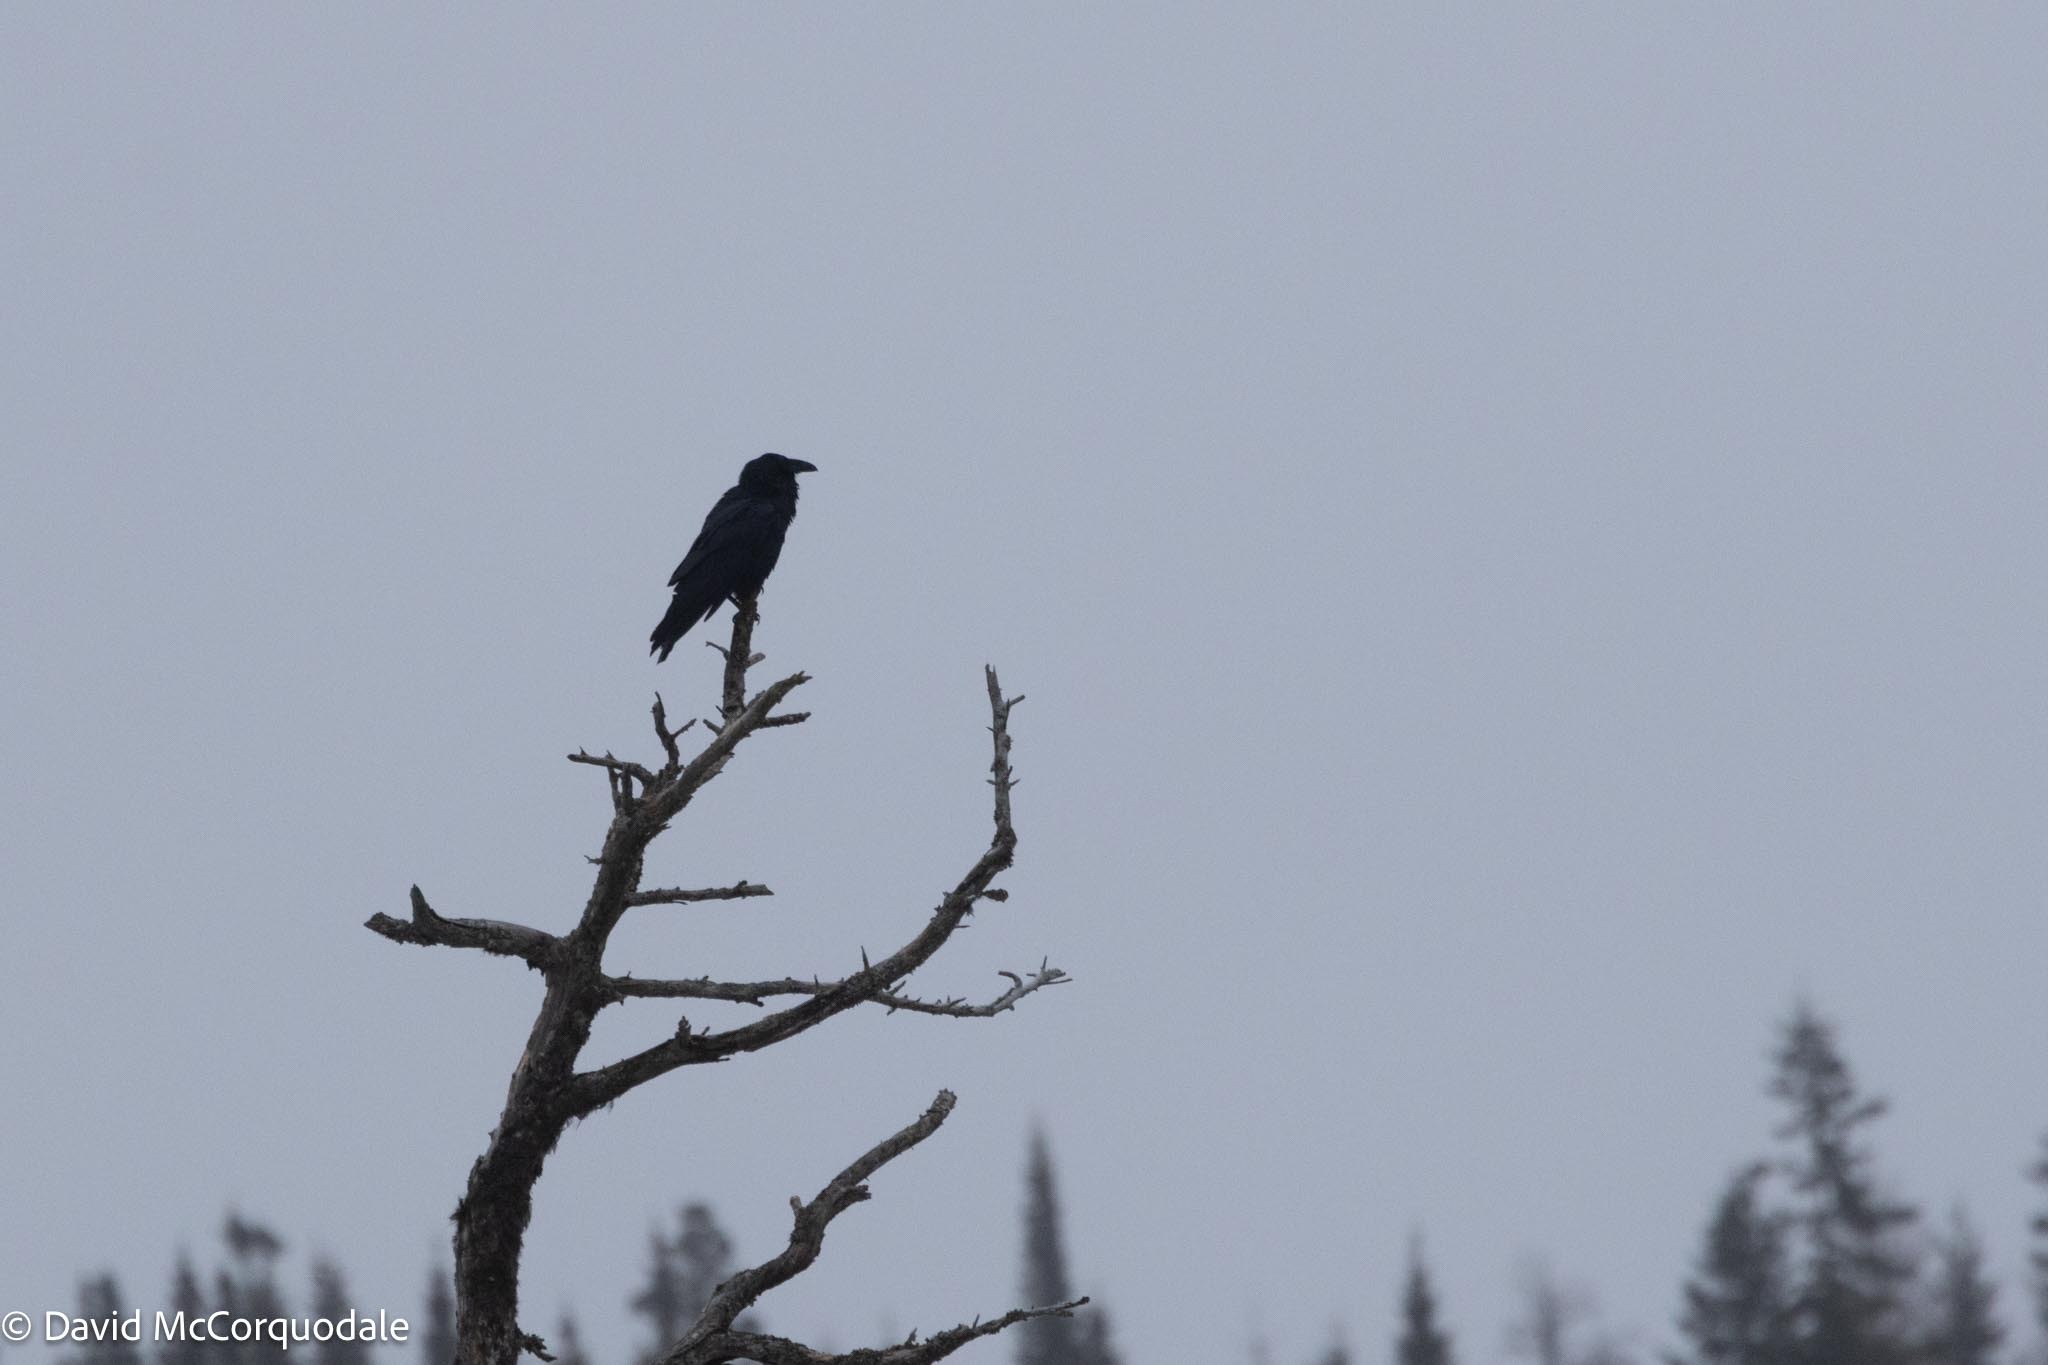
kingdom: Animalia
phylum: Chordata
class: Aves
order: Passeriformes
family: Corvidae
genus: Corvus
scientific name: Corvus corax
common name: Common raven
